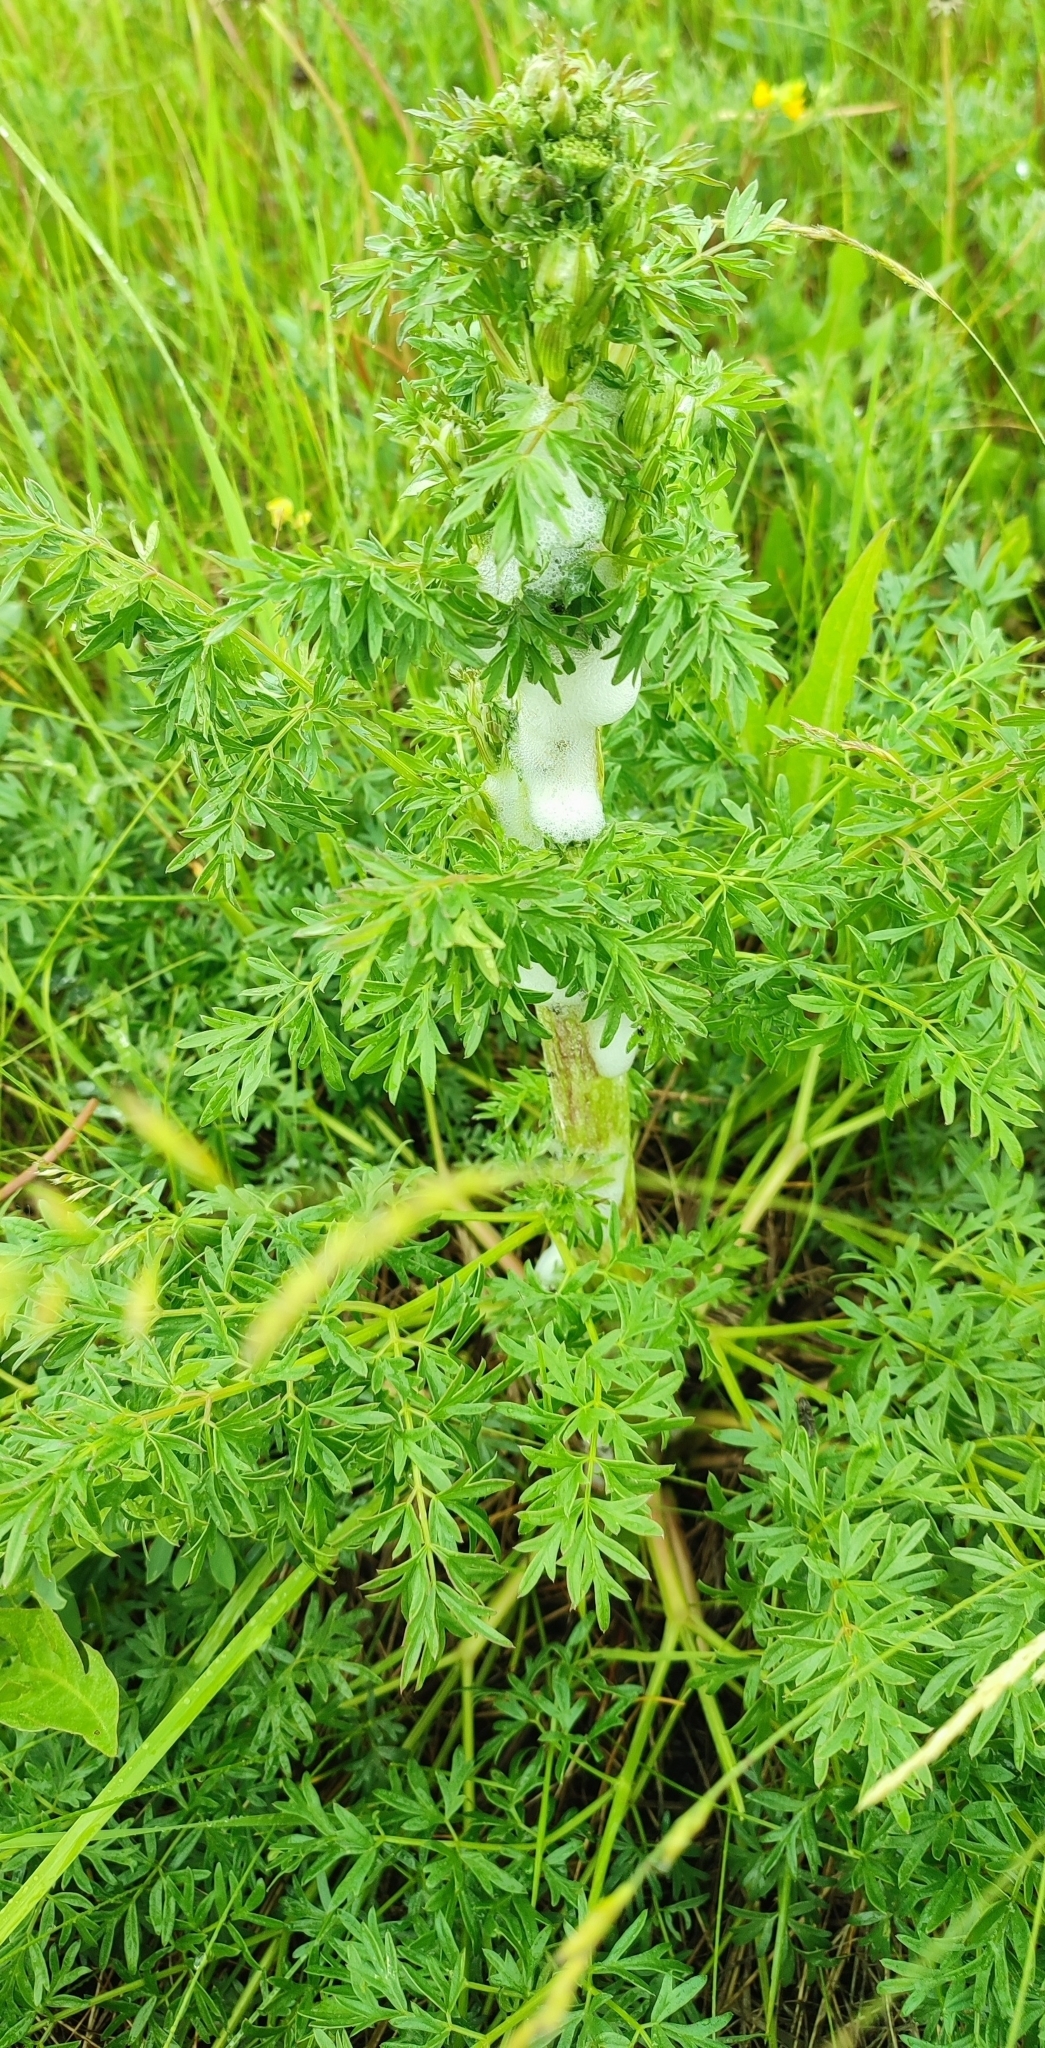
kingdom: Plantae
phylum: Tracheophyta
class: Magnoliopsida
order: Apiales
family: Apiaceae
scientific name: Apiaceae
